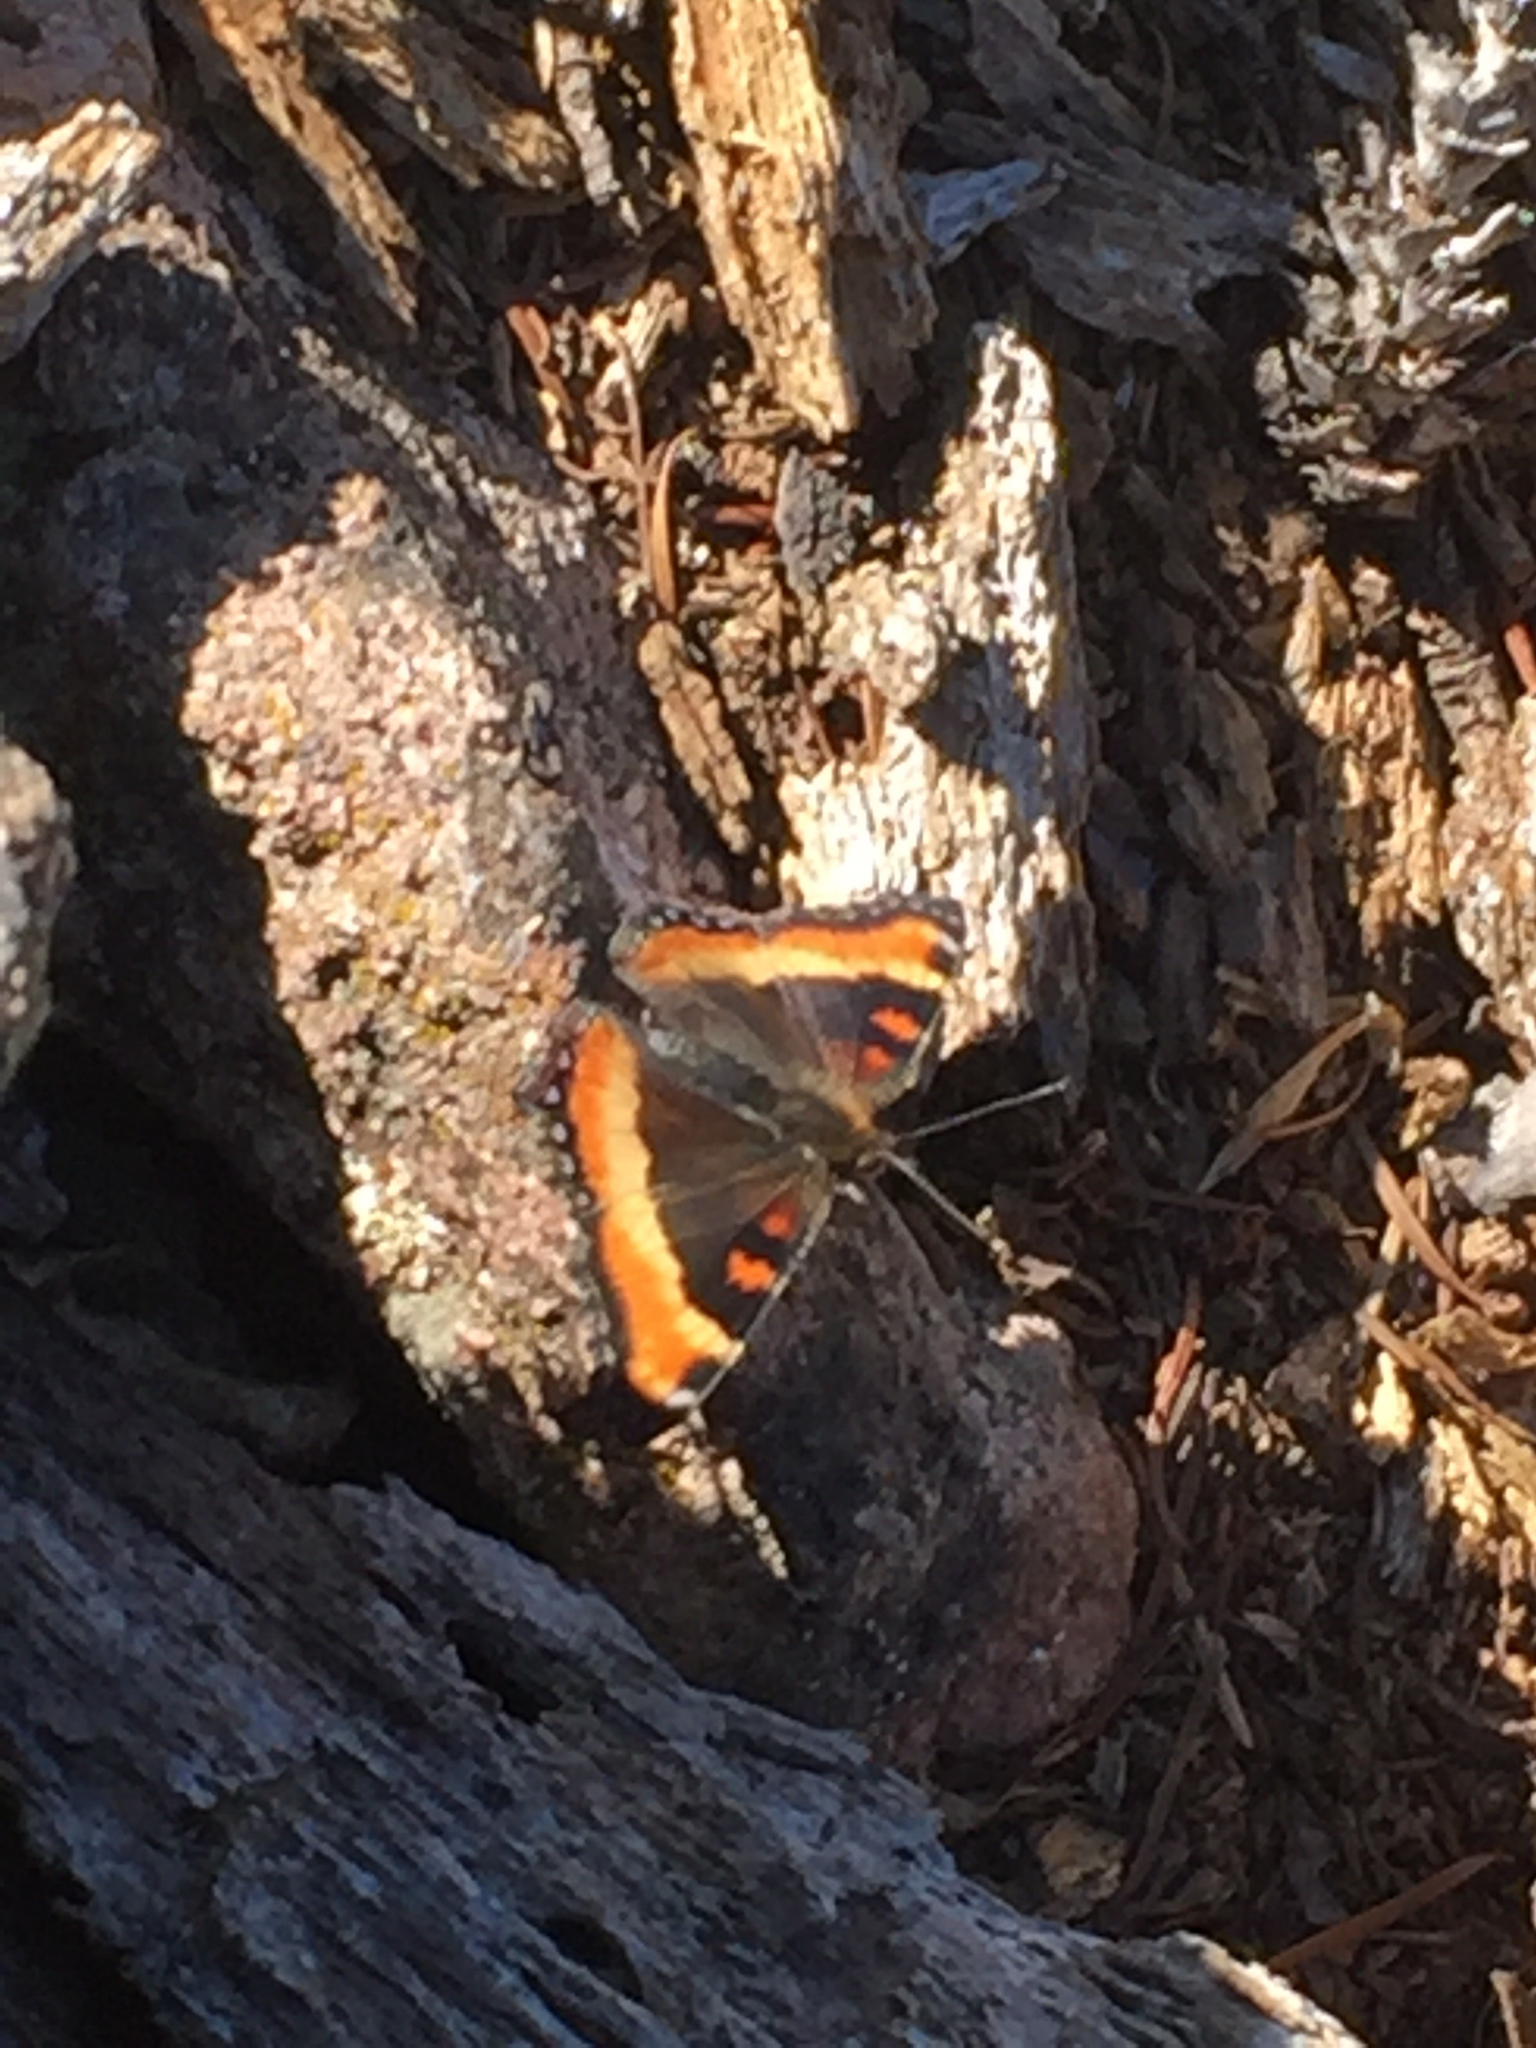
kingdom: Animalia
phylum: Arthropoda
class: Insecta
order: Lepidoptera
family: Nymphalidae
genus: Aglais
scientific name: Aglais milberti
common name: Milbert's tortoiseshell
